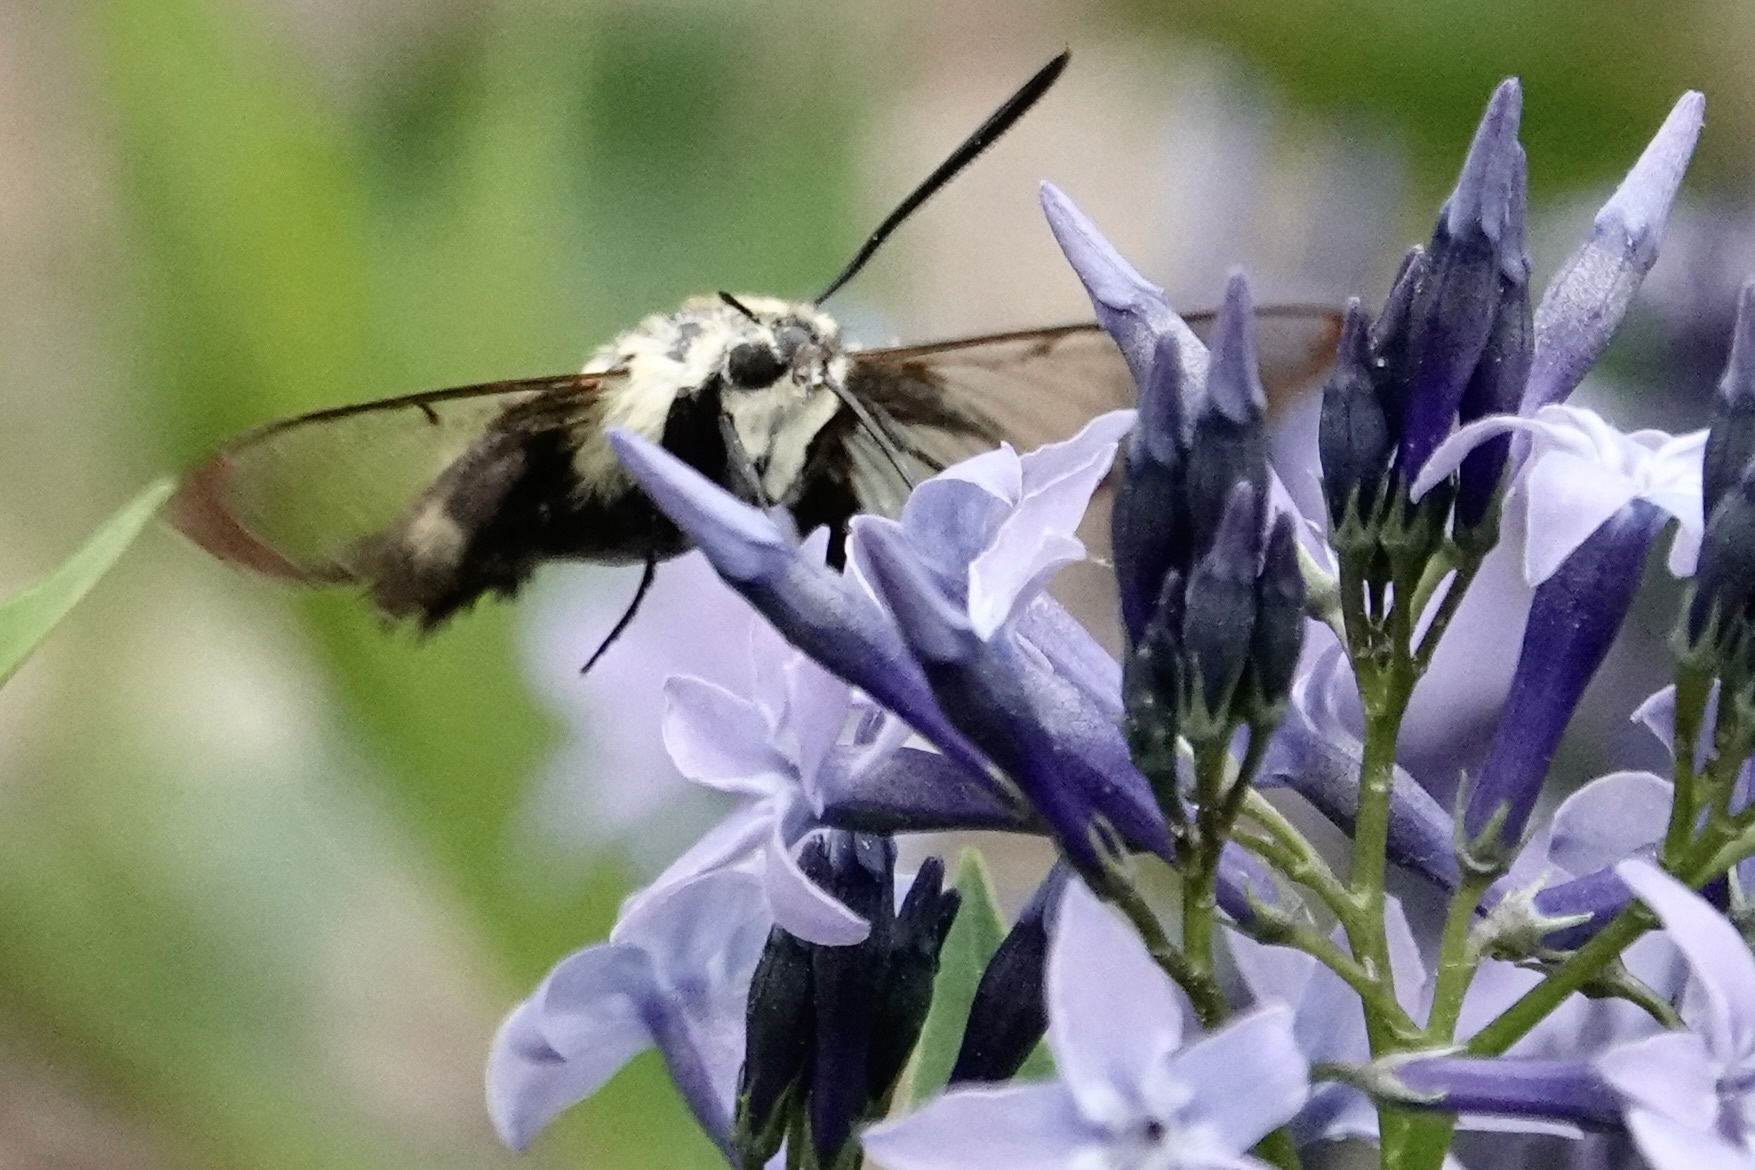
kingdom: Animalia
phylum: Arthropoda
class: Insecta
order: Lepidoptera
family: Sphingidae
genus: Hemaris
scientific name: Hemaris diffinis
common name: Bumblebee moth
